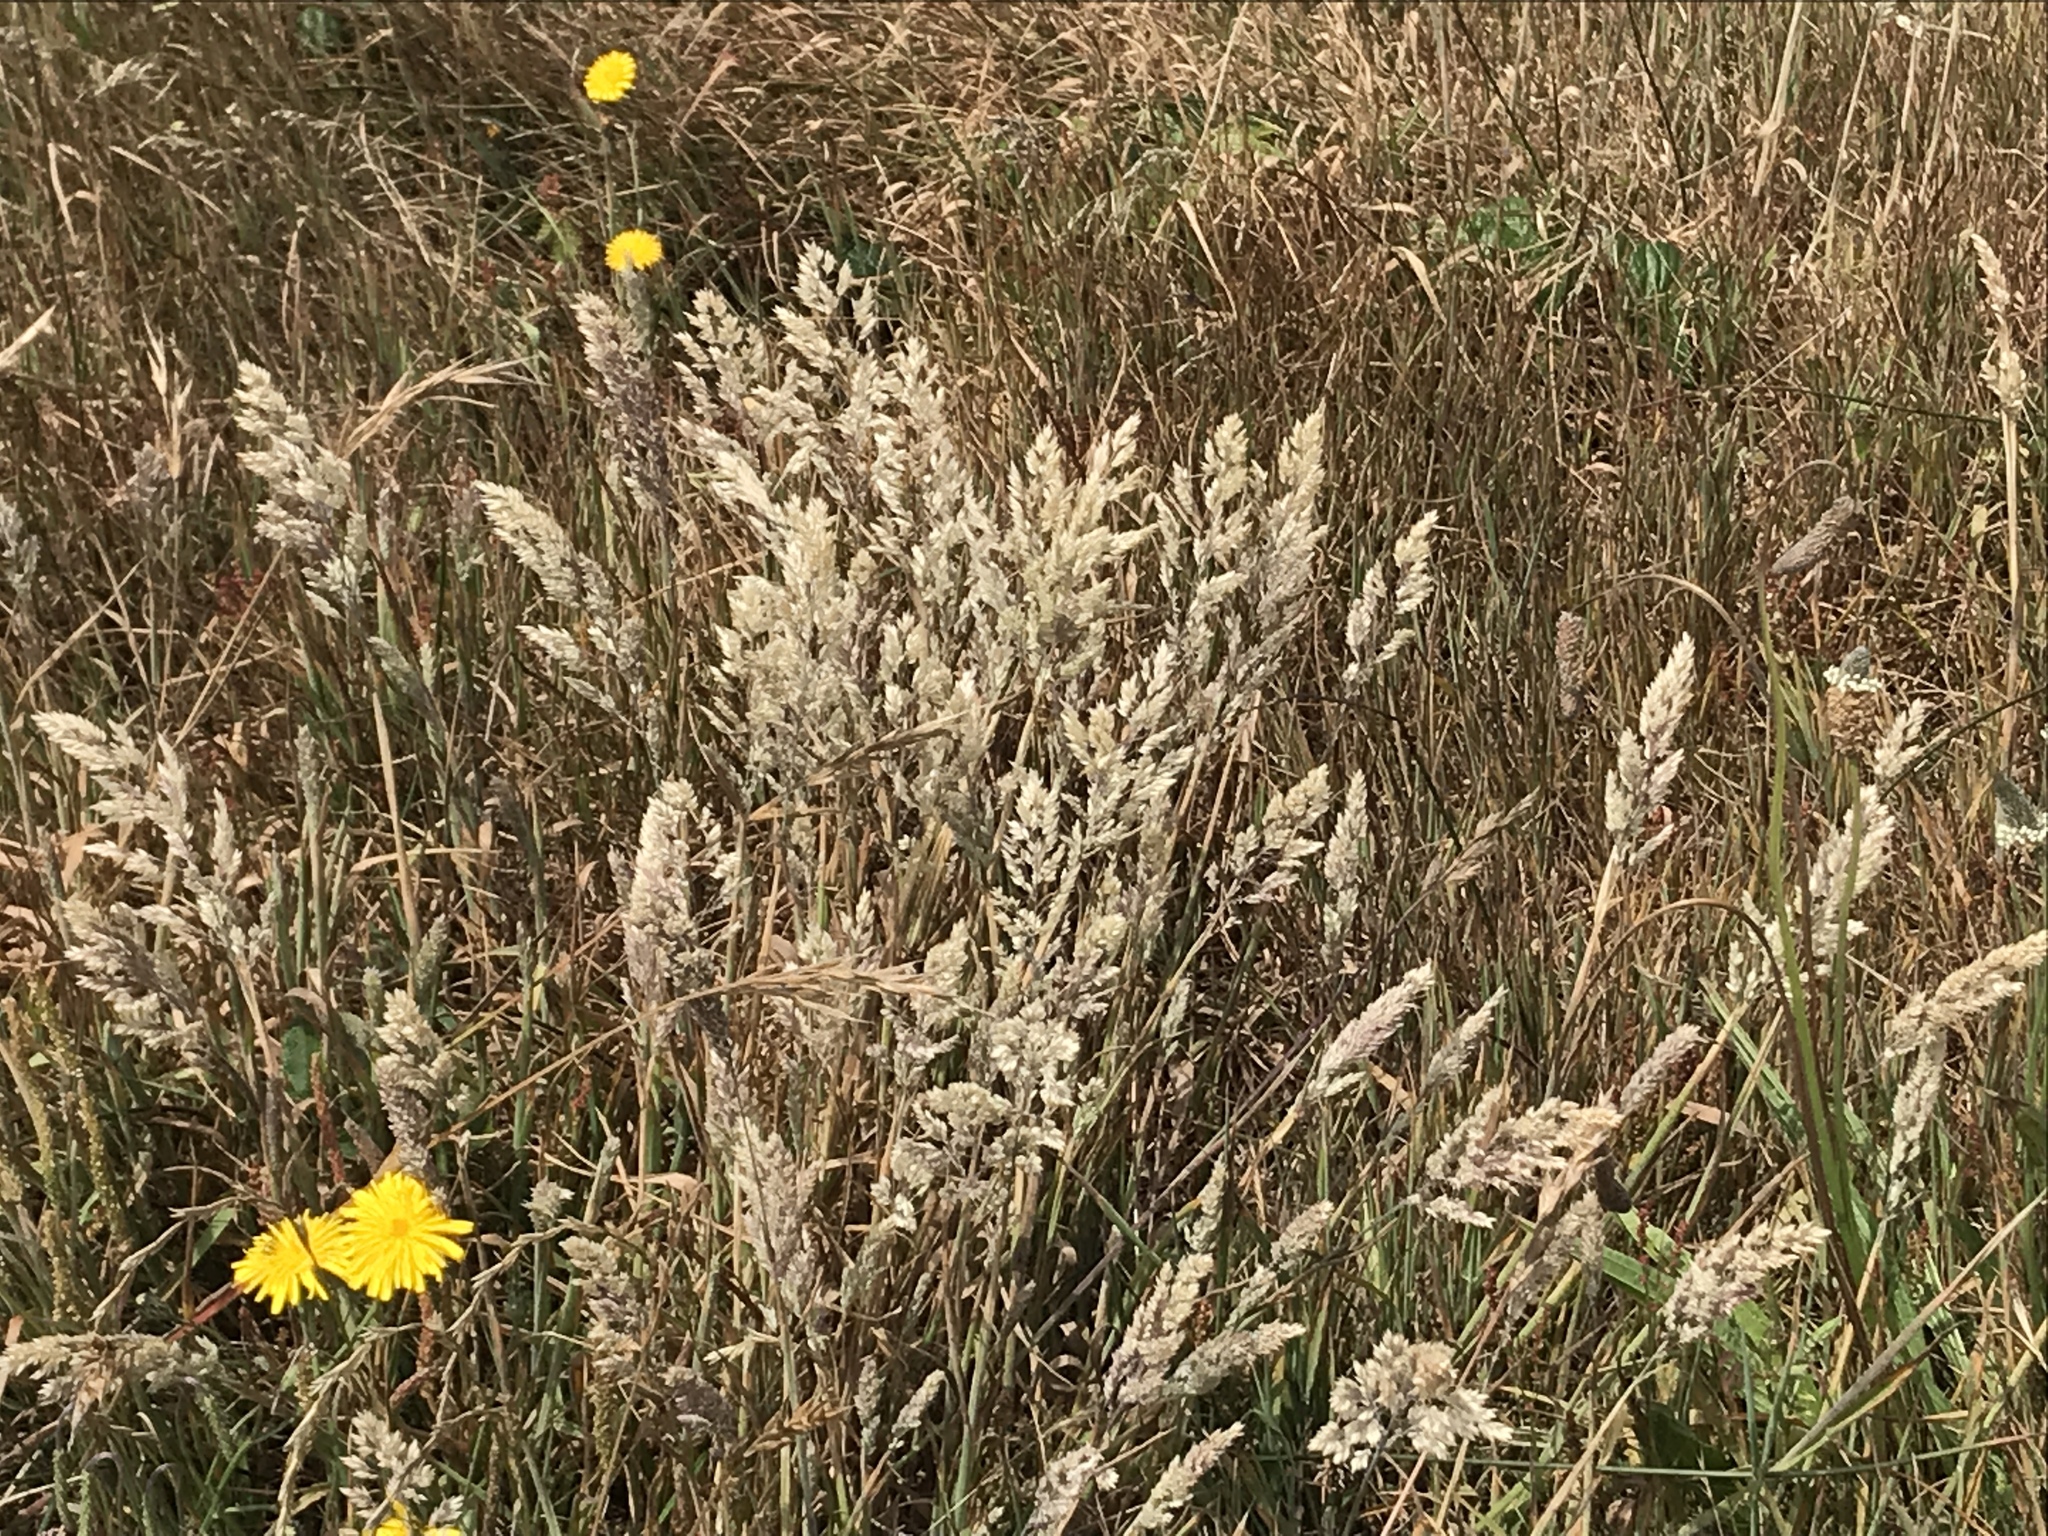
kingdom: Plantae
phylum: Tracheophyta
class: Liliopsida
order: Poales
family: Poaceae
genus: Holcus
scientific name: Holcus lanatus
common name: Yorkshire-fog
